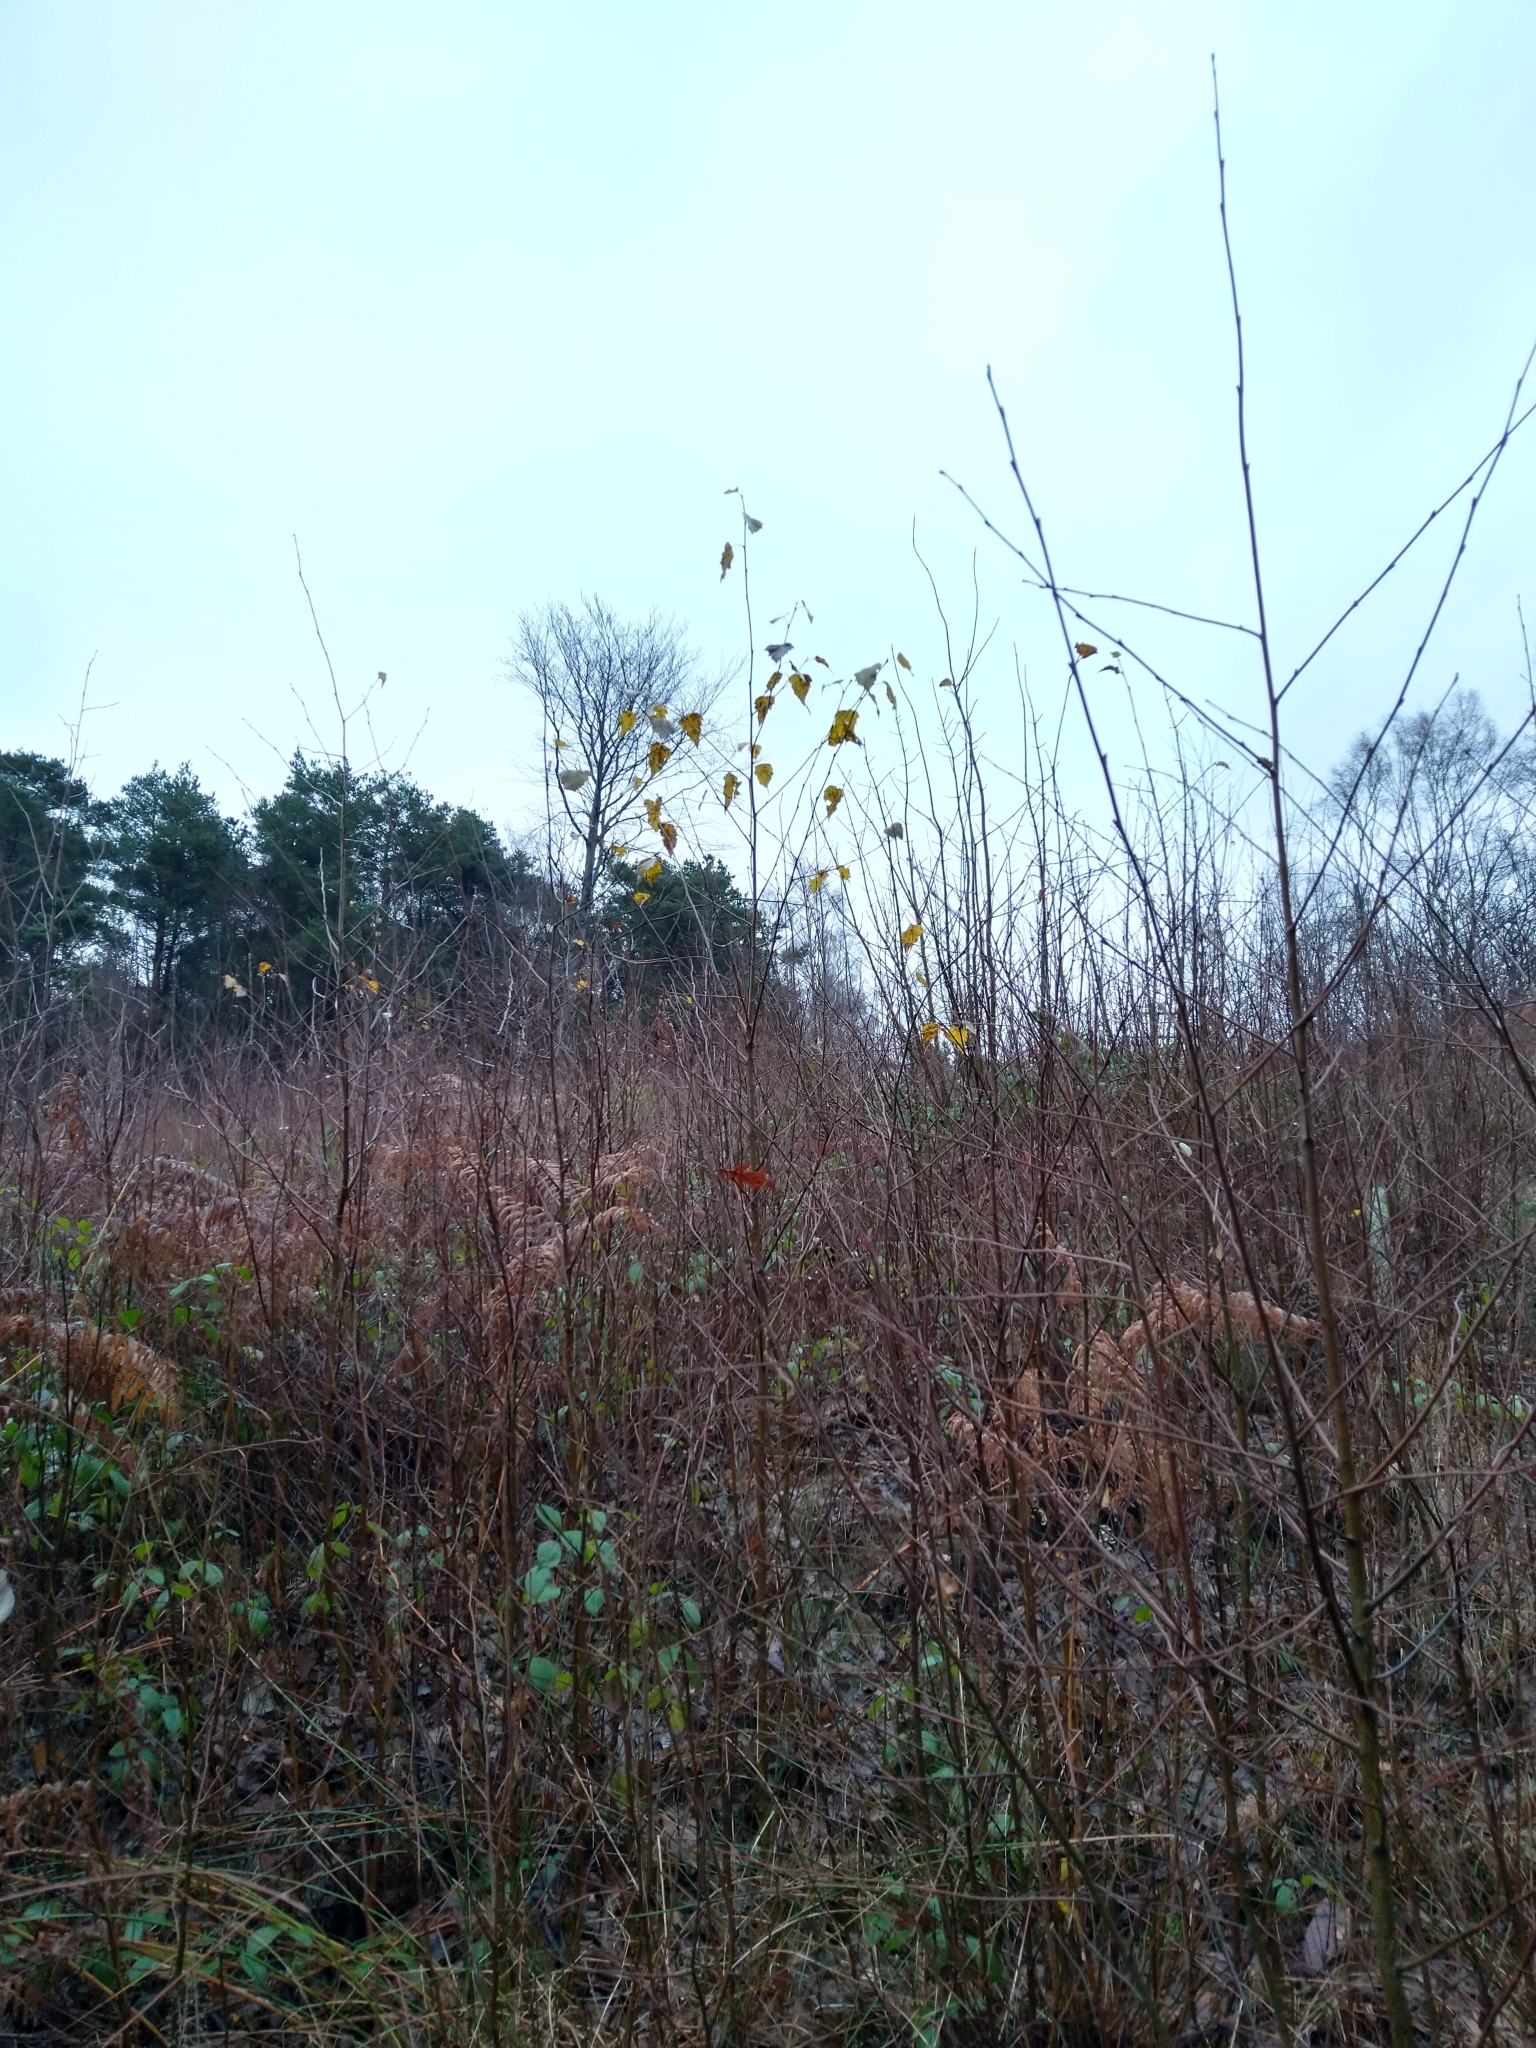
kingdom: Plantae
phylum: Tracheophyta
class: Magnoliopsida
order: Fagales
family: Betulaceae
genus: Betula
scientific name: Betula pendula
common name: Silver birch
